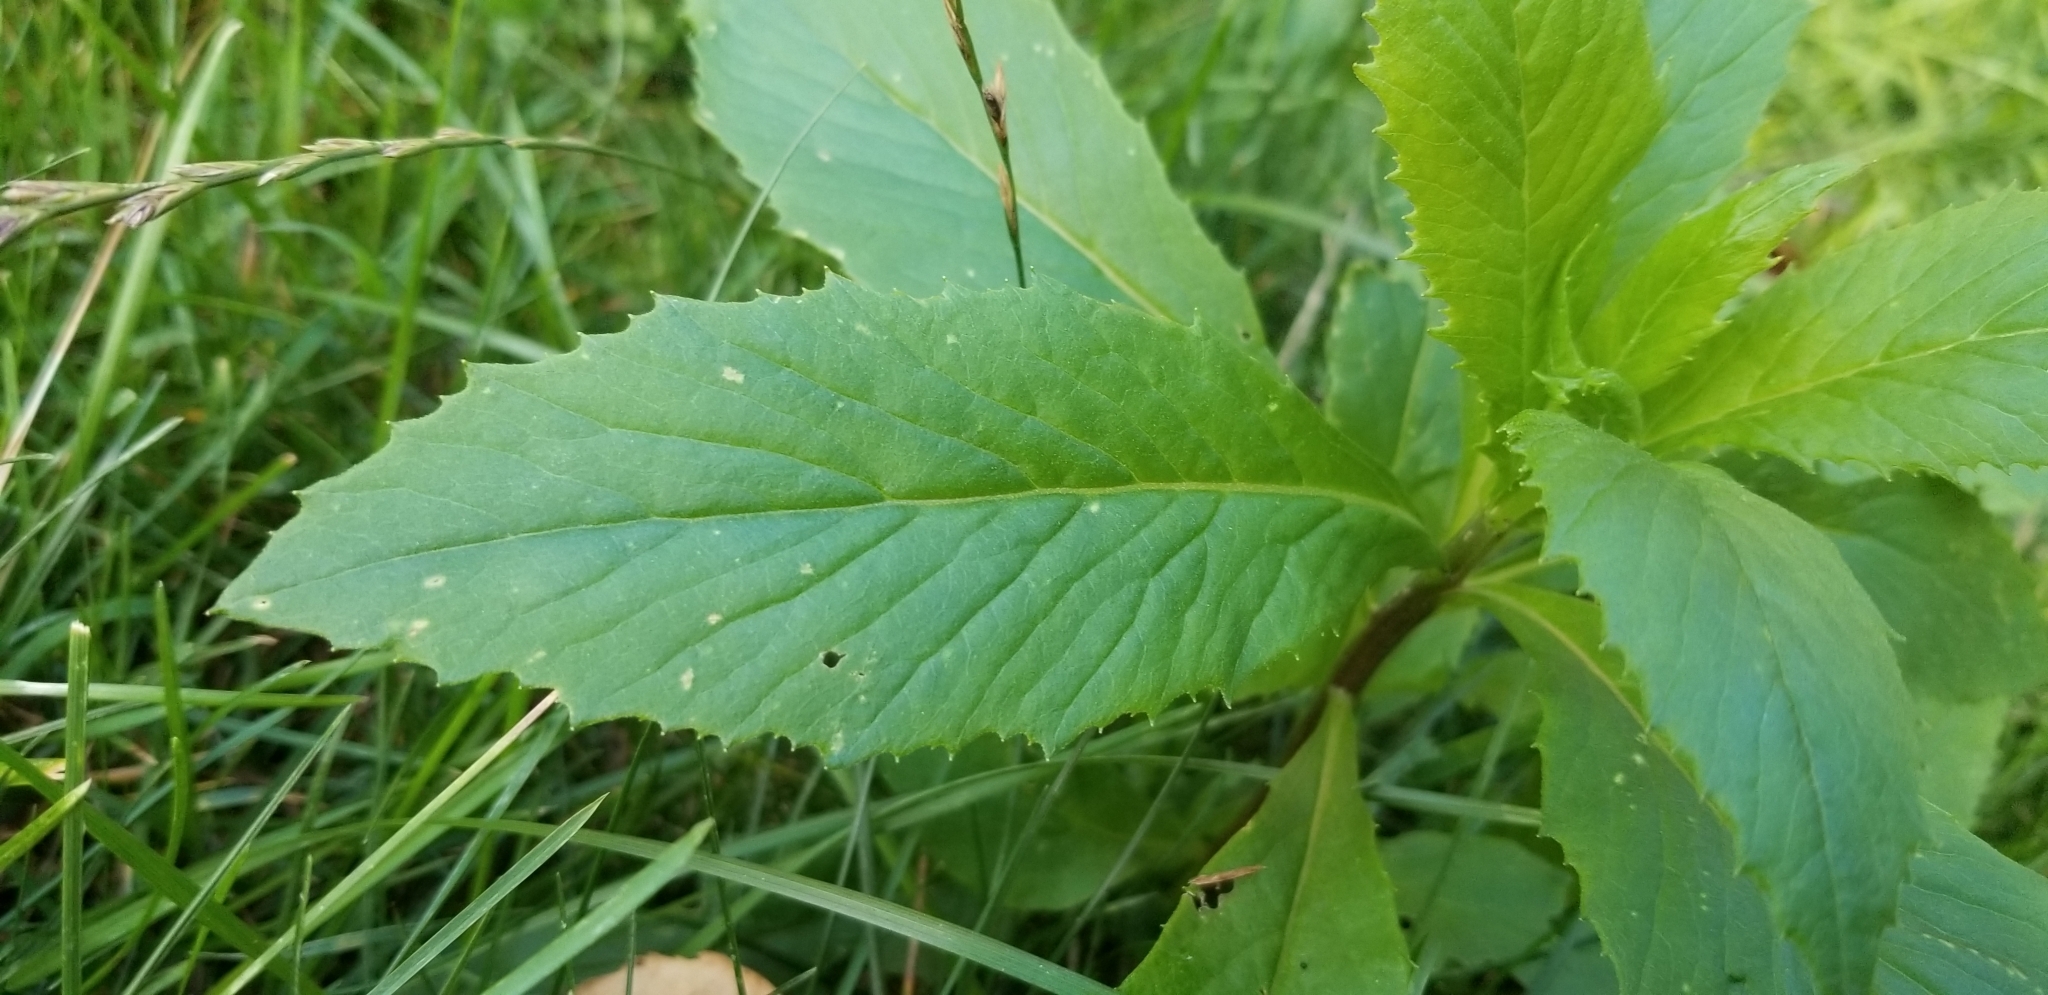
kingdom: Plantae
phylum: Tracheophyta
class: Magnoliopsida
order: Asterales
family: Asteraceae
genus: Erechtites
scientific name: Erechtites hieraciifolius
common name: American burnweed
